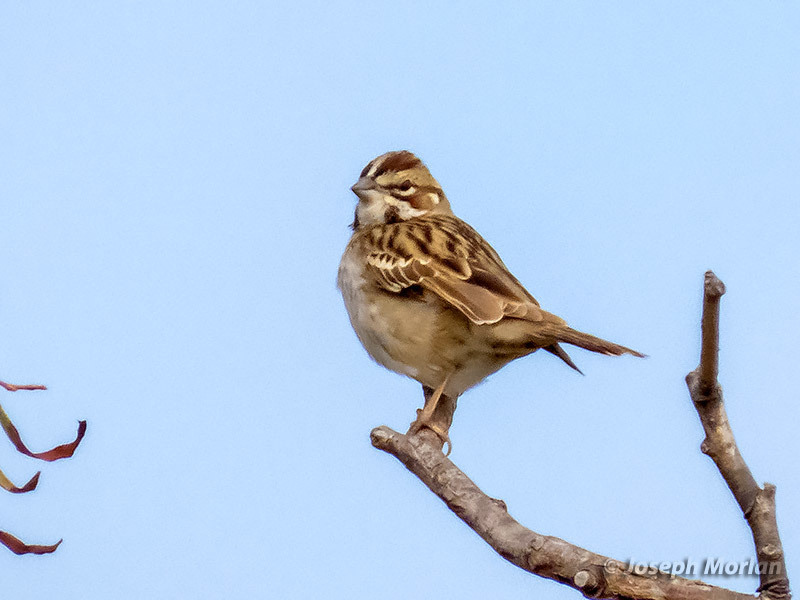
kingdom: Animalia
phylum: Chordata
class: Aves
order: Passeriformes
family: Passerellidae
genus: Chondestes
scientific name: Chondestes grammacus
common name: Lark sparrow
